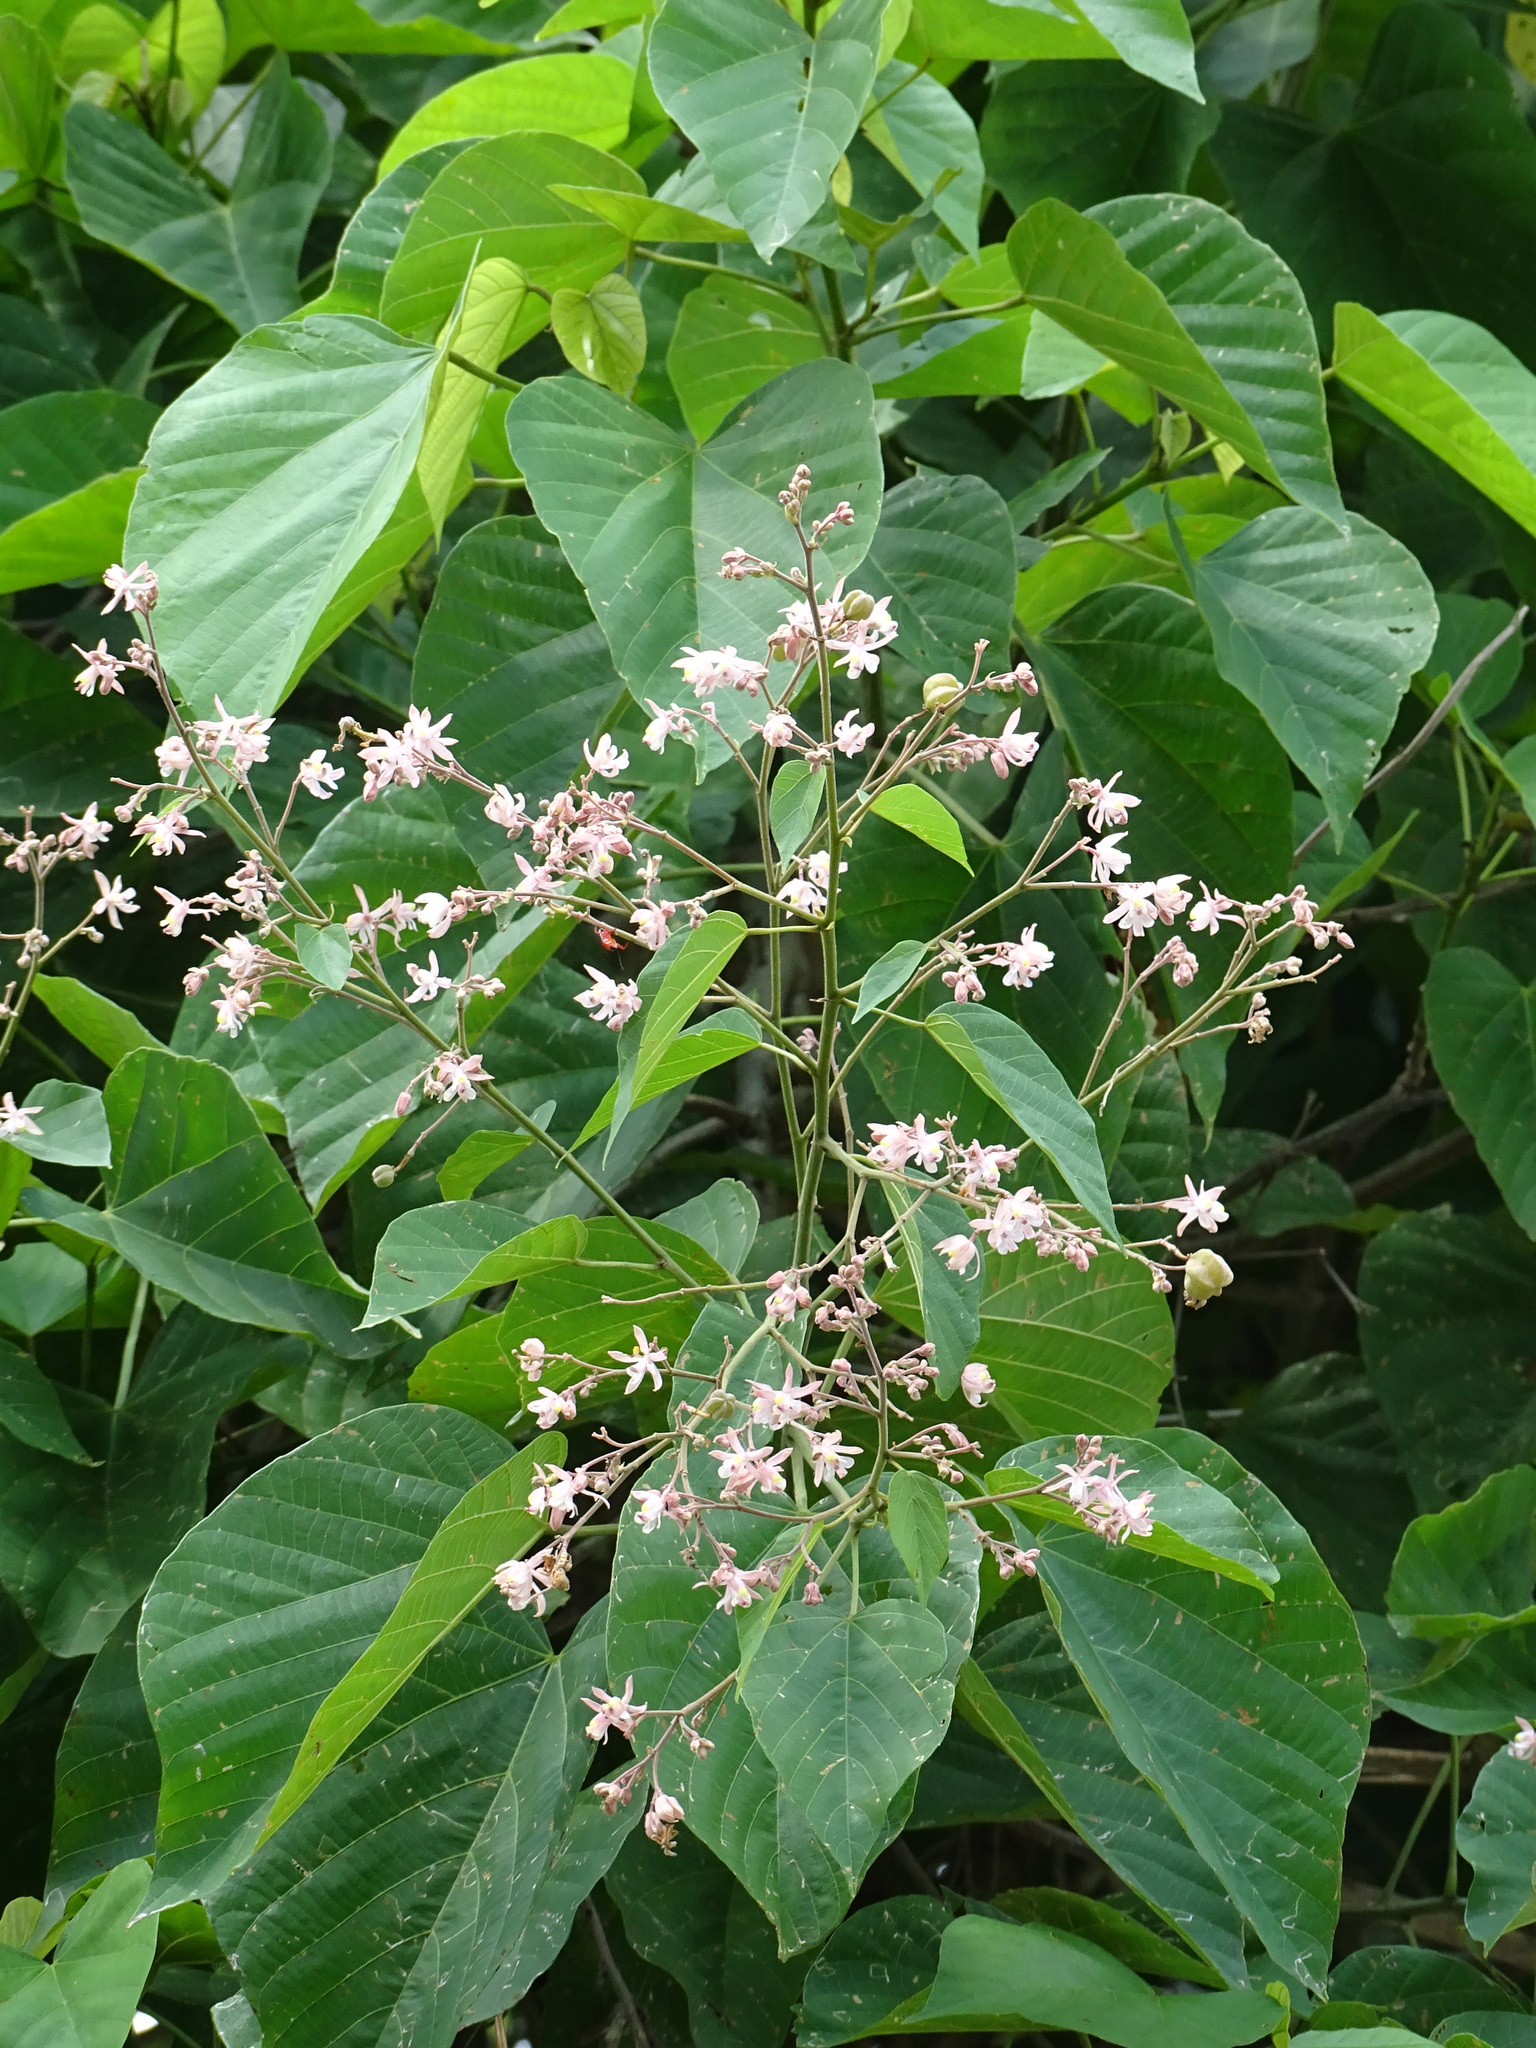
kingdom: Plantae
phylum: Tracheophyta
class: Magnoliopsida
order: Malvales
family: Malvaceae
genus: Kleinhovia
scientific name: Kleinhovia hospita
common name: Guest-tree
